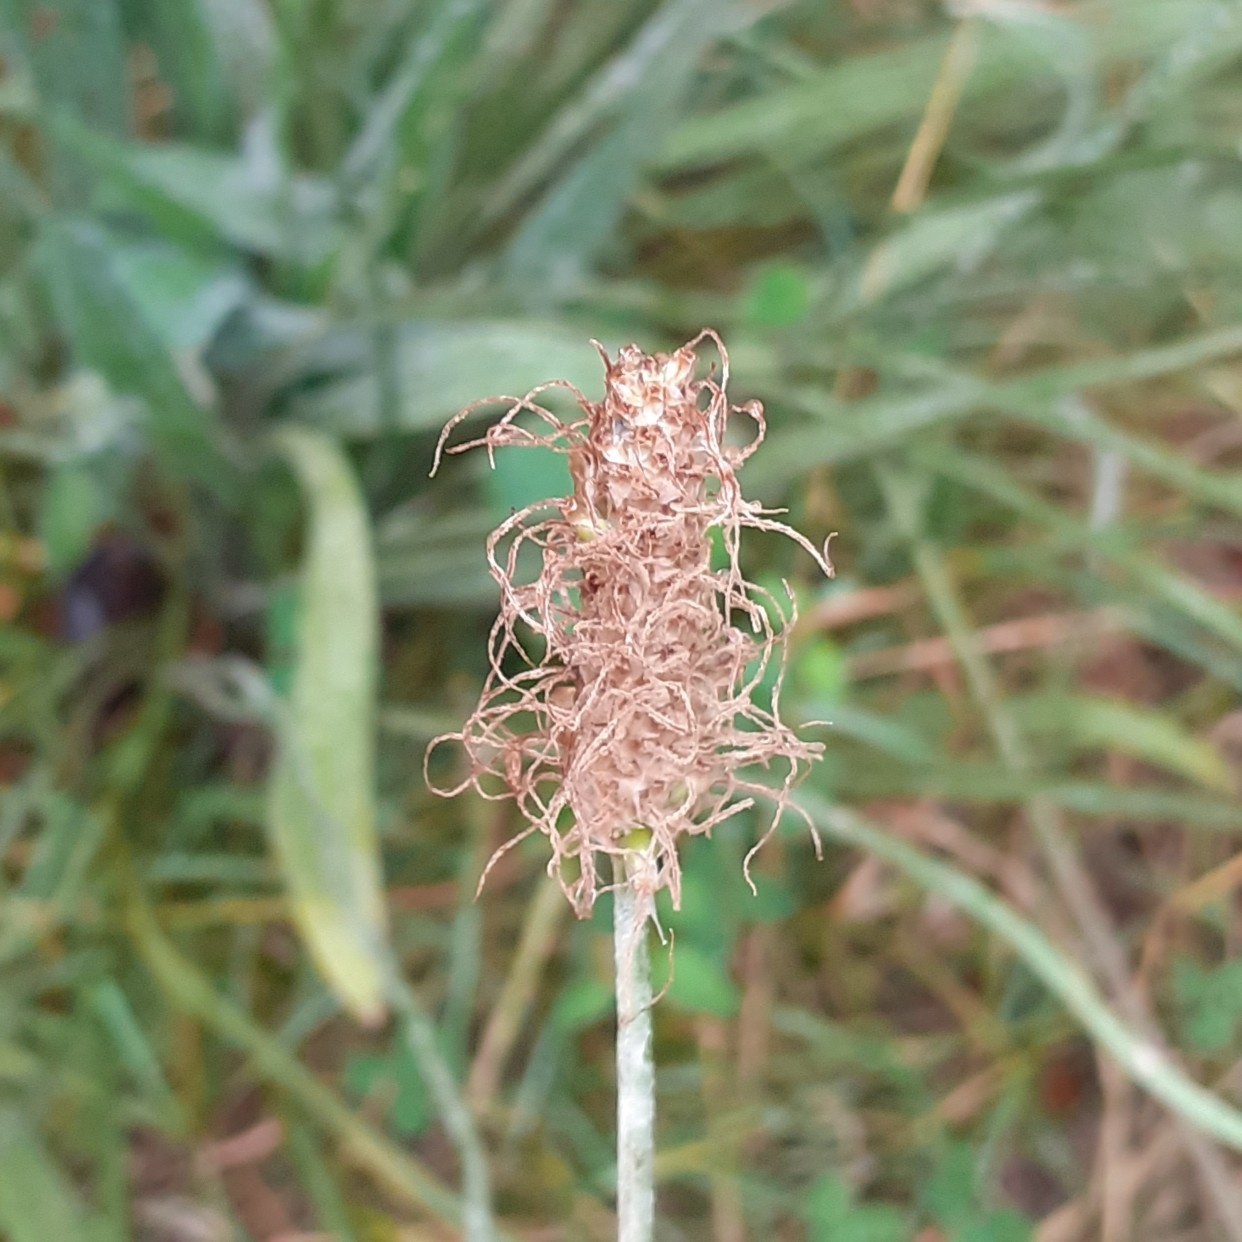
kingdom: Plantae
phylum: Tracheophyta
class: Magnoliopsida
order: Lamiales
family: Plantaginaceae
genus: Plantago
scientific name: Plantago lanceolata
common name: Ribwort plantain
